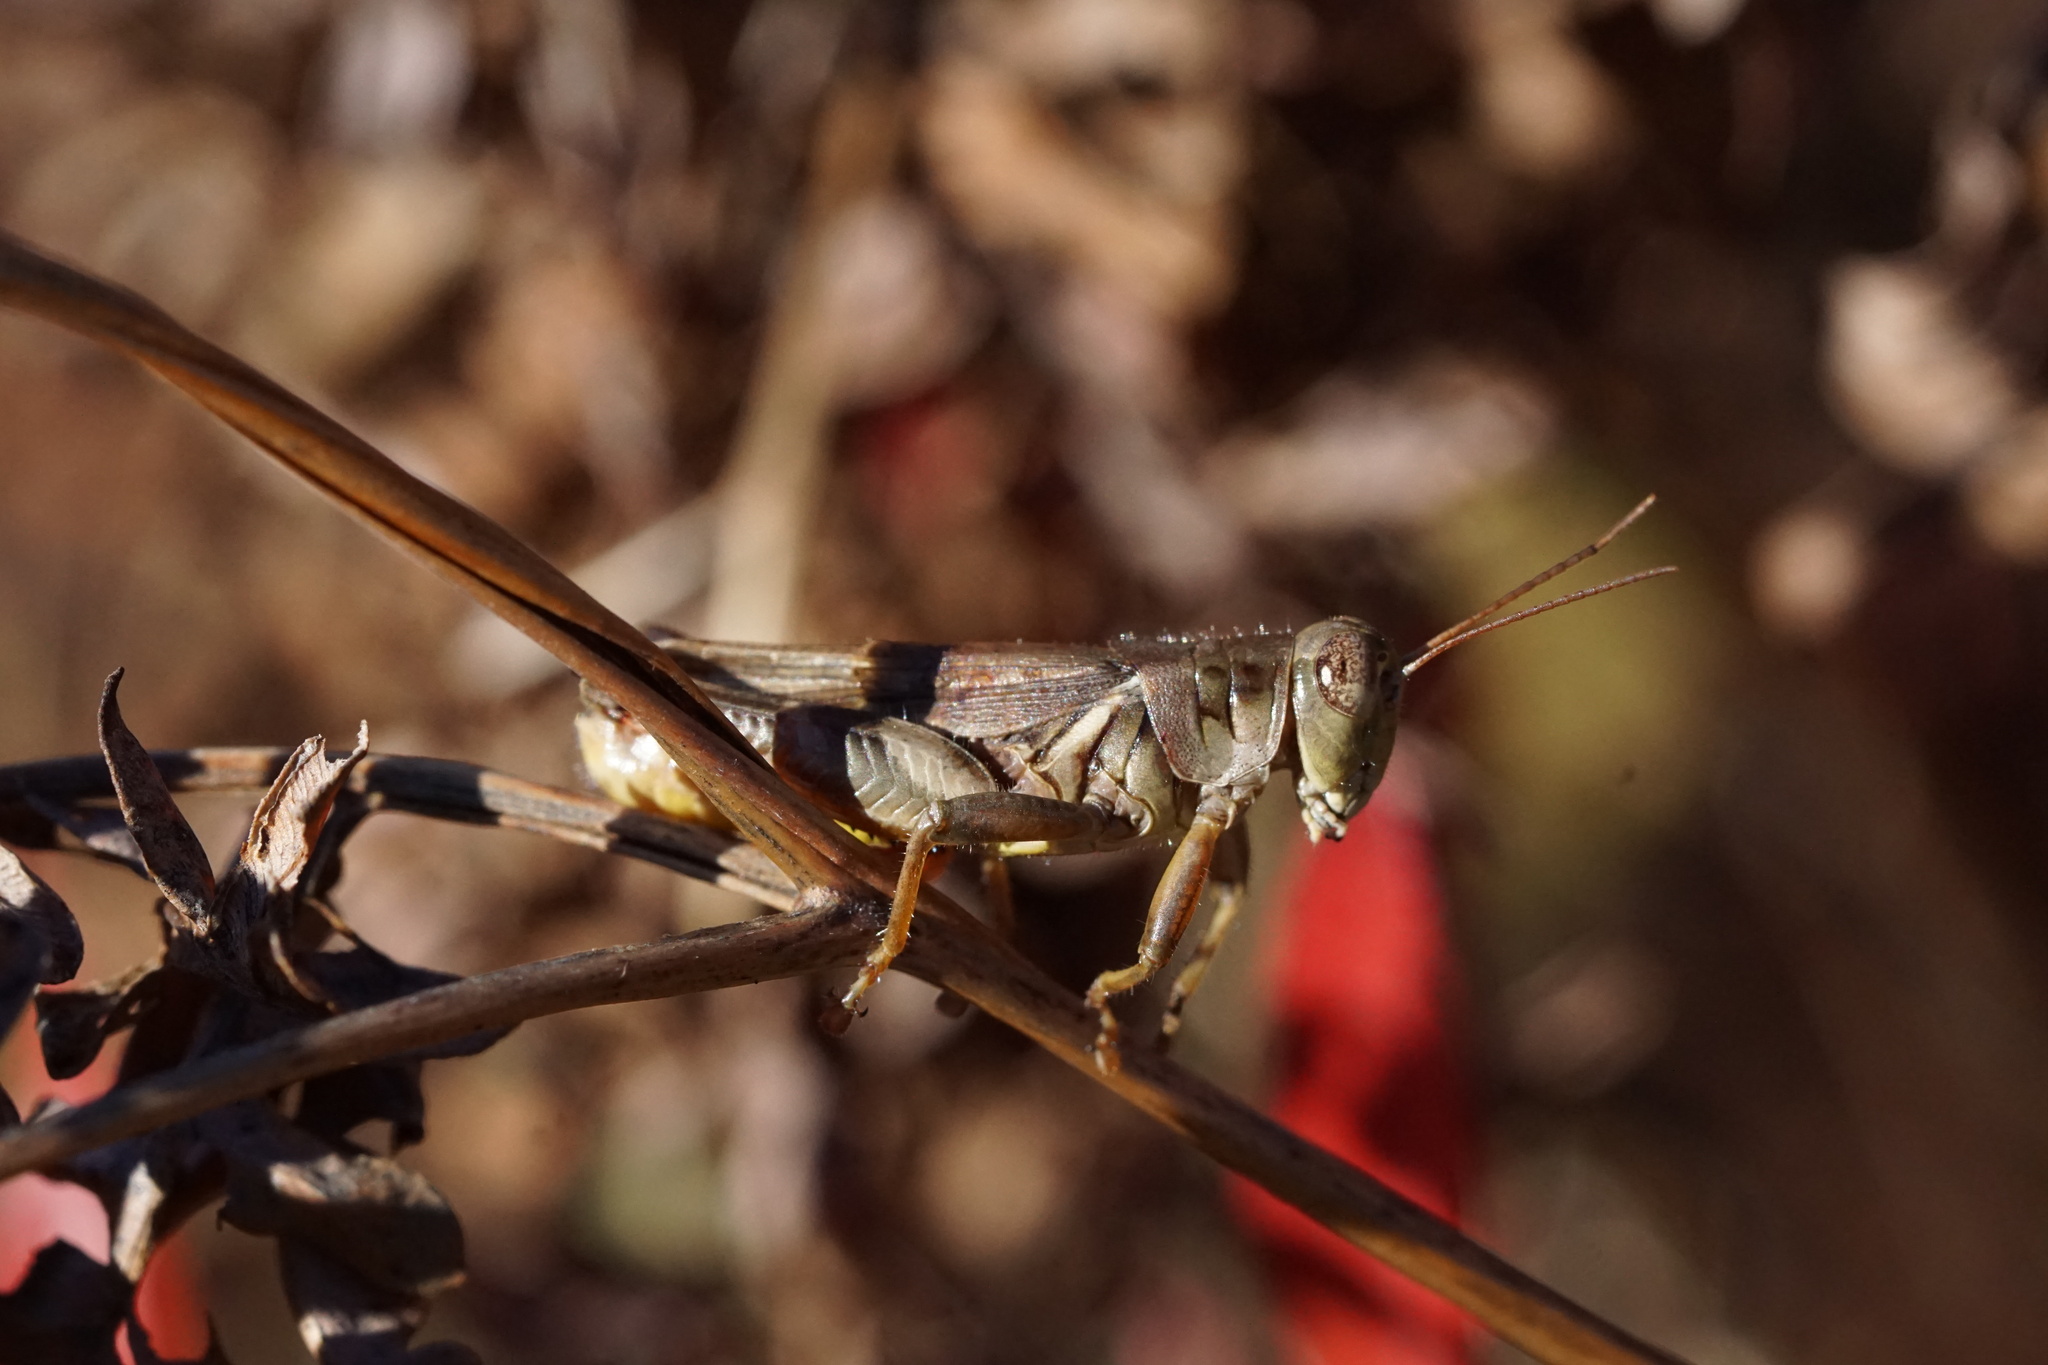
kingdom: Animalia
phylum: Arthropoda
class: Insecta
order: Orthoptera
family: Acrididae
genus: Melanoplus
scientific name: Melanoplus keeleri
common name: Keeler grasshopper
